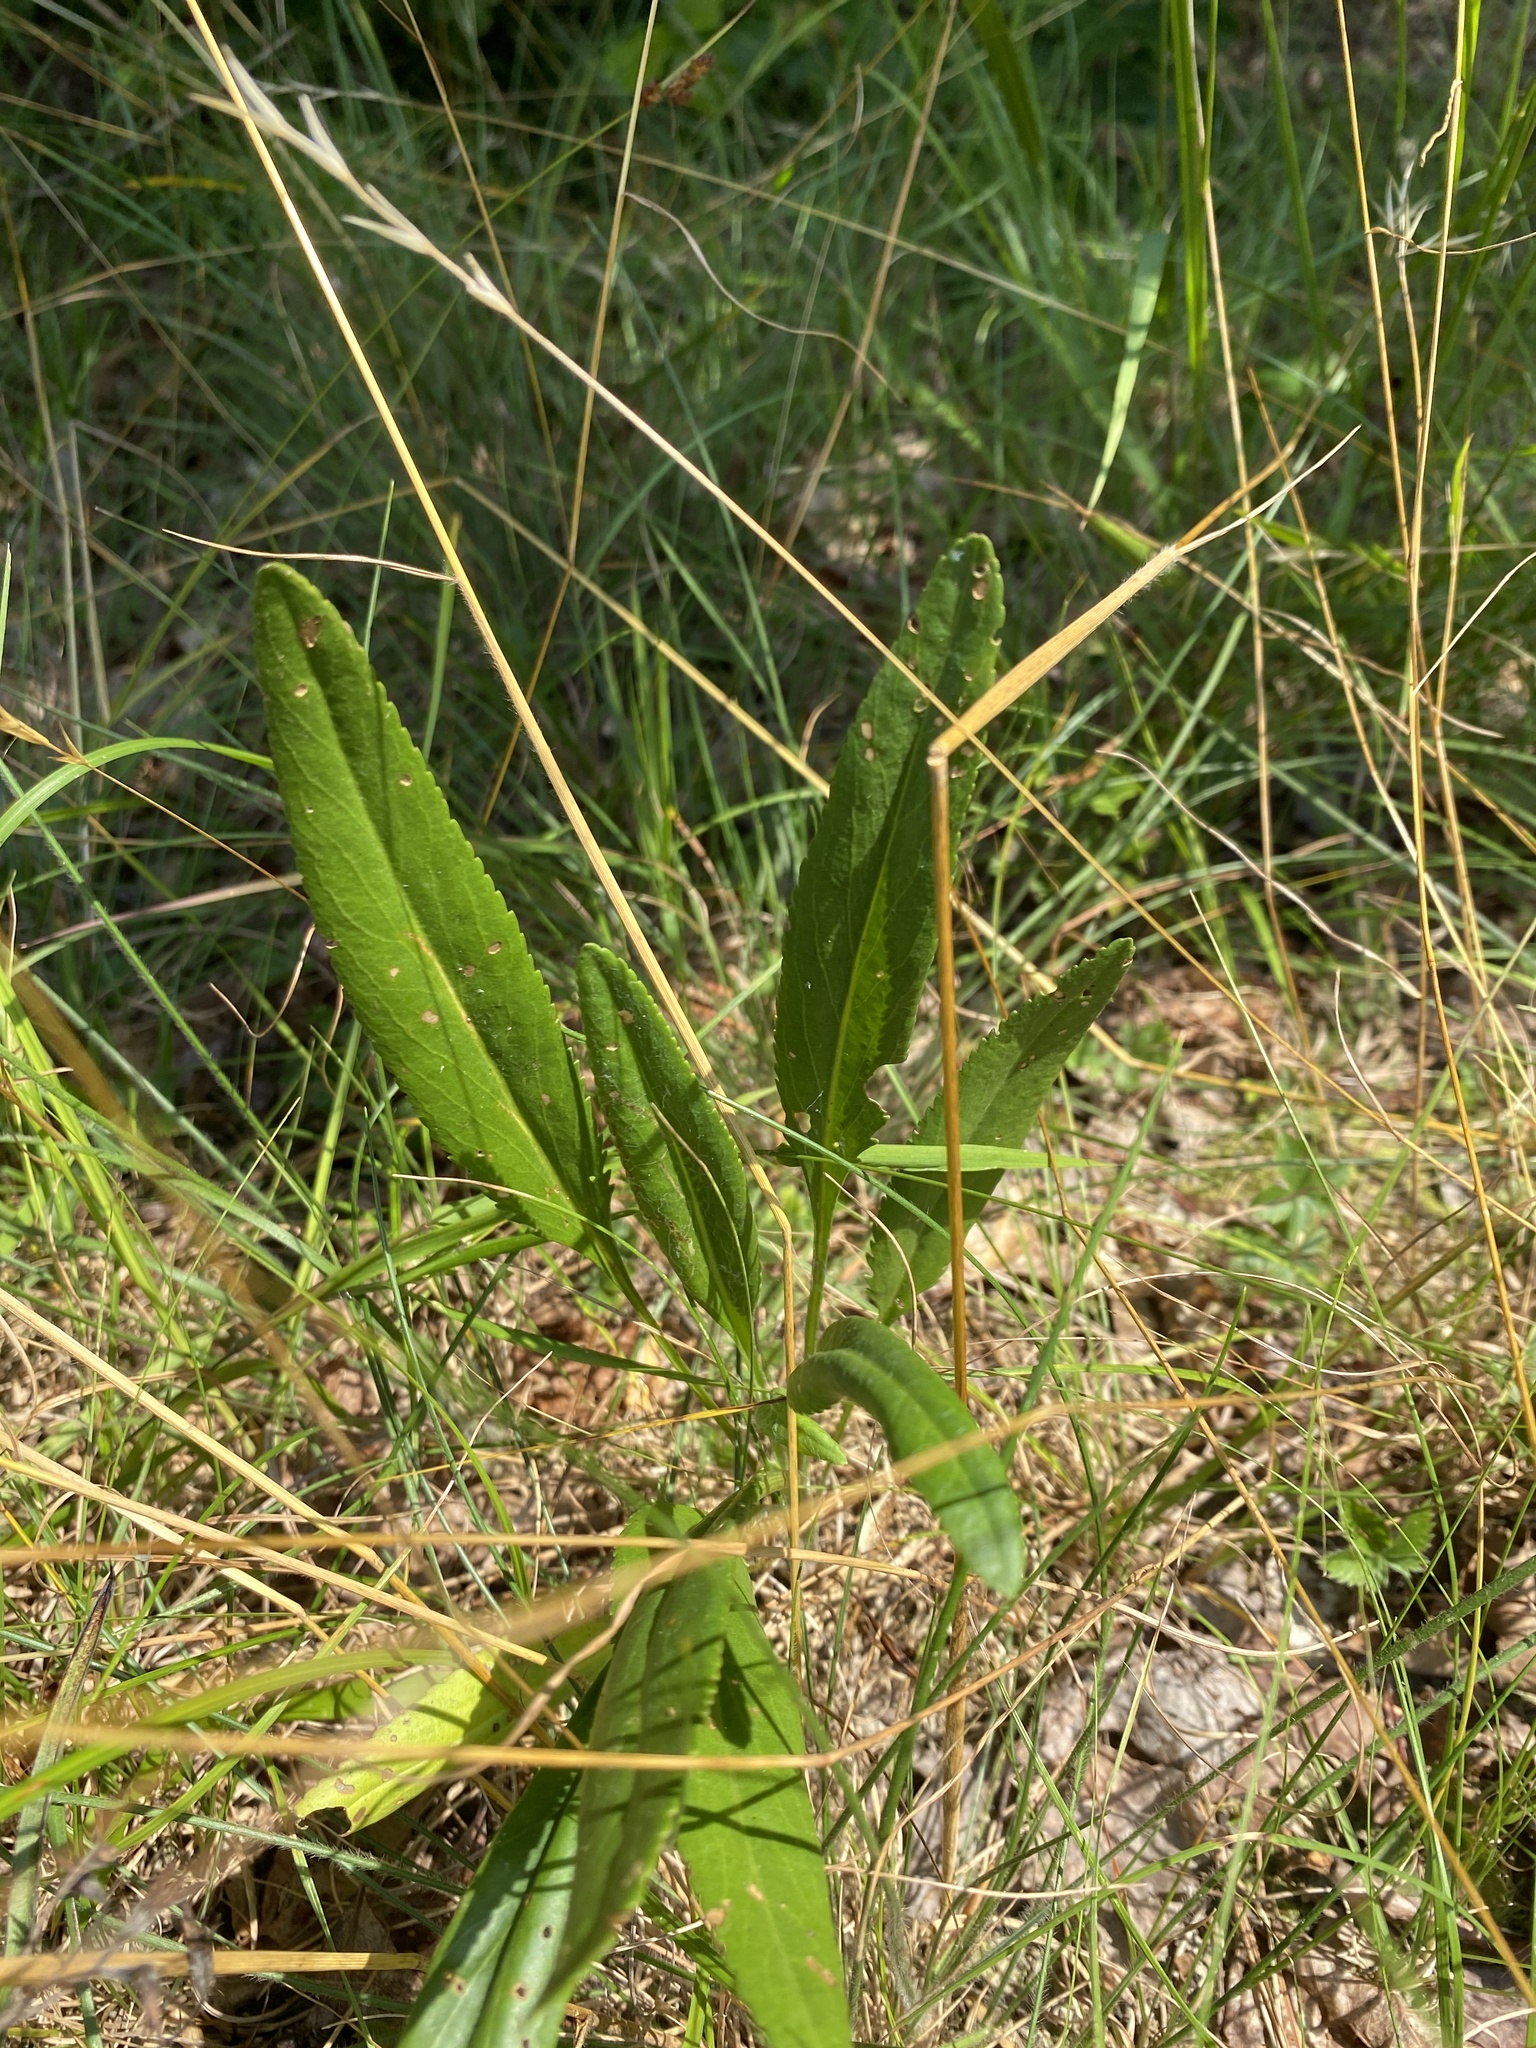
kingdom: Plantae
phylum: Tracheophyta
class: Magnoliopsida
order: Asterales
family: Asteraceae
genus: Packera
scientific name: Packera anonyma
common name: Small ragwort
